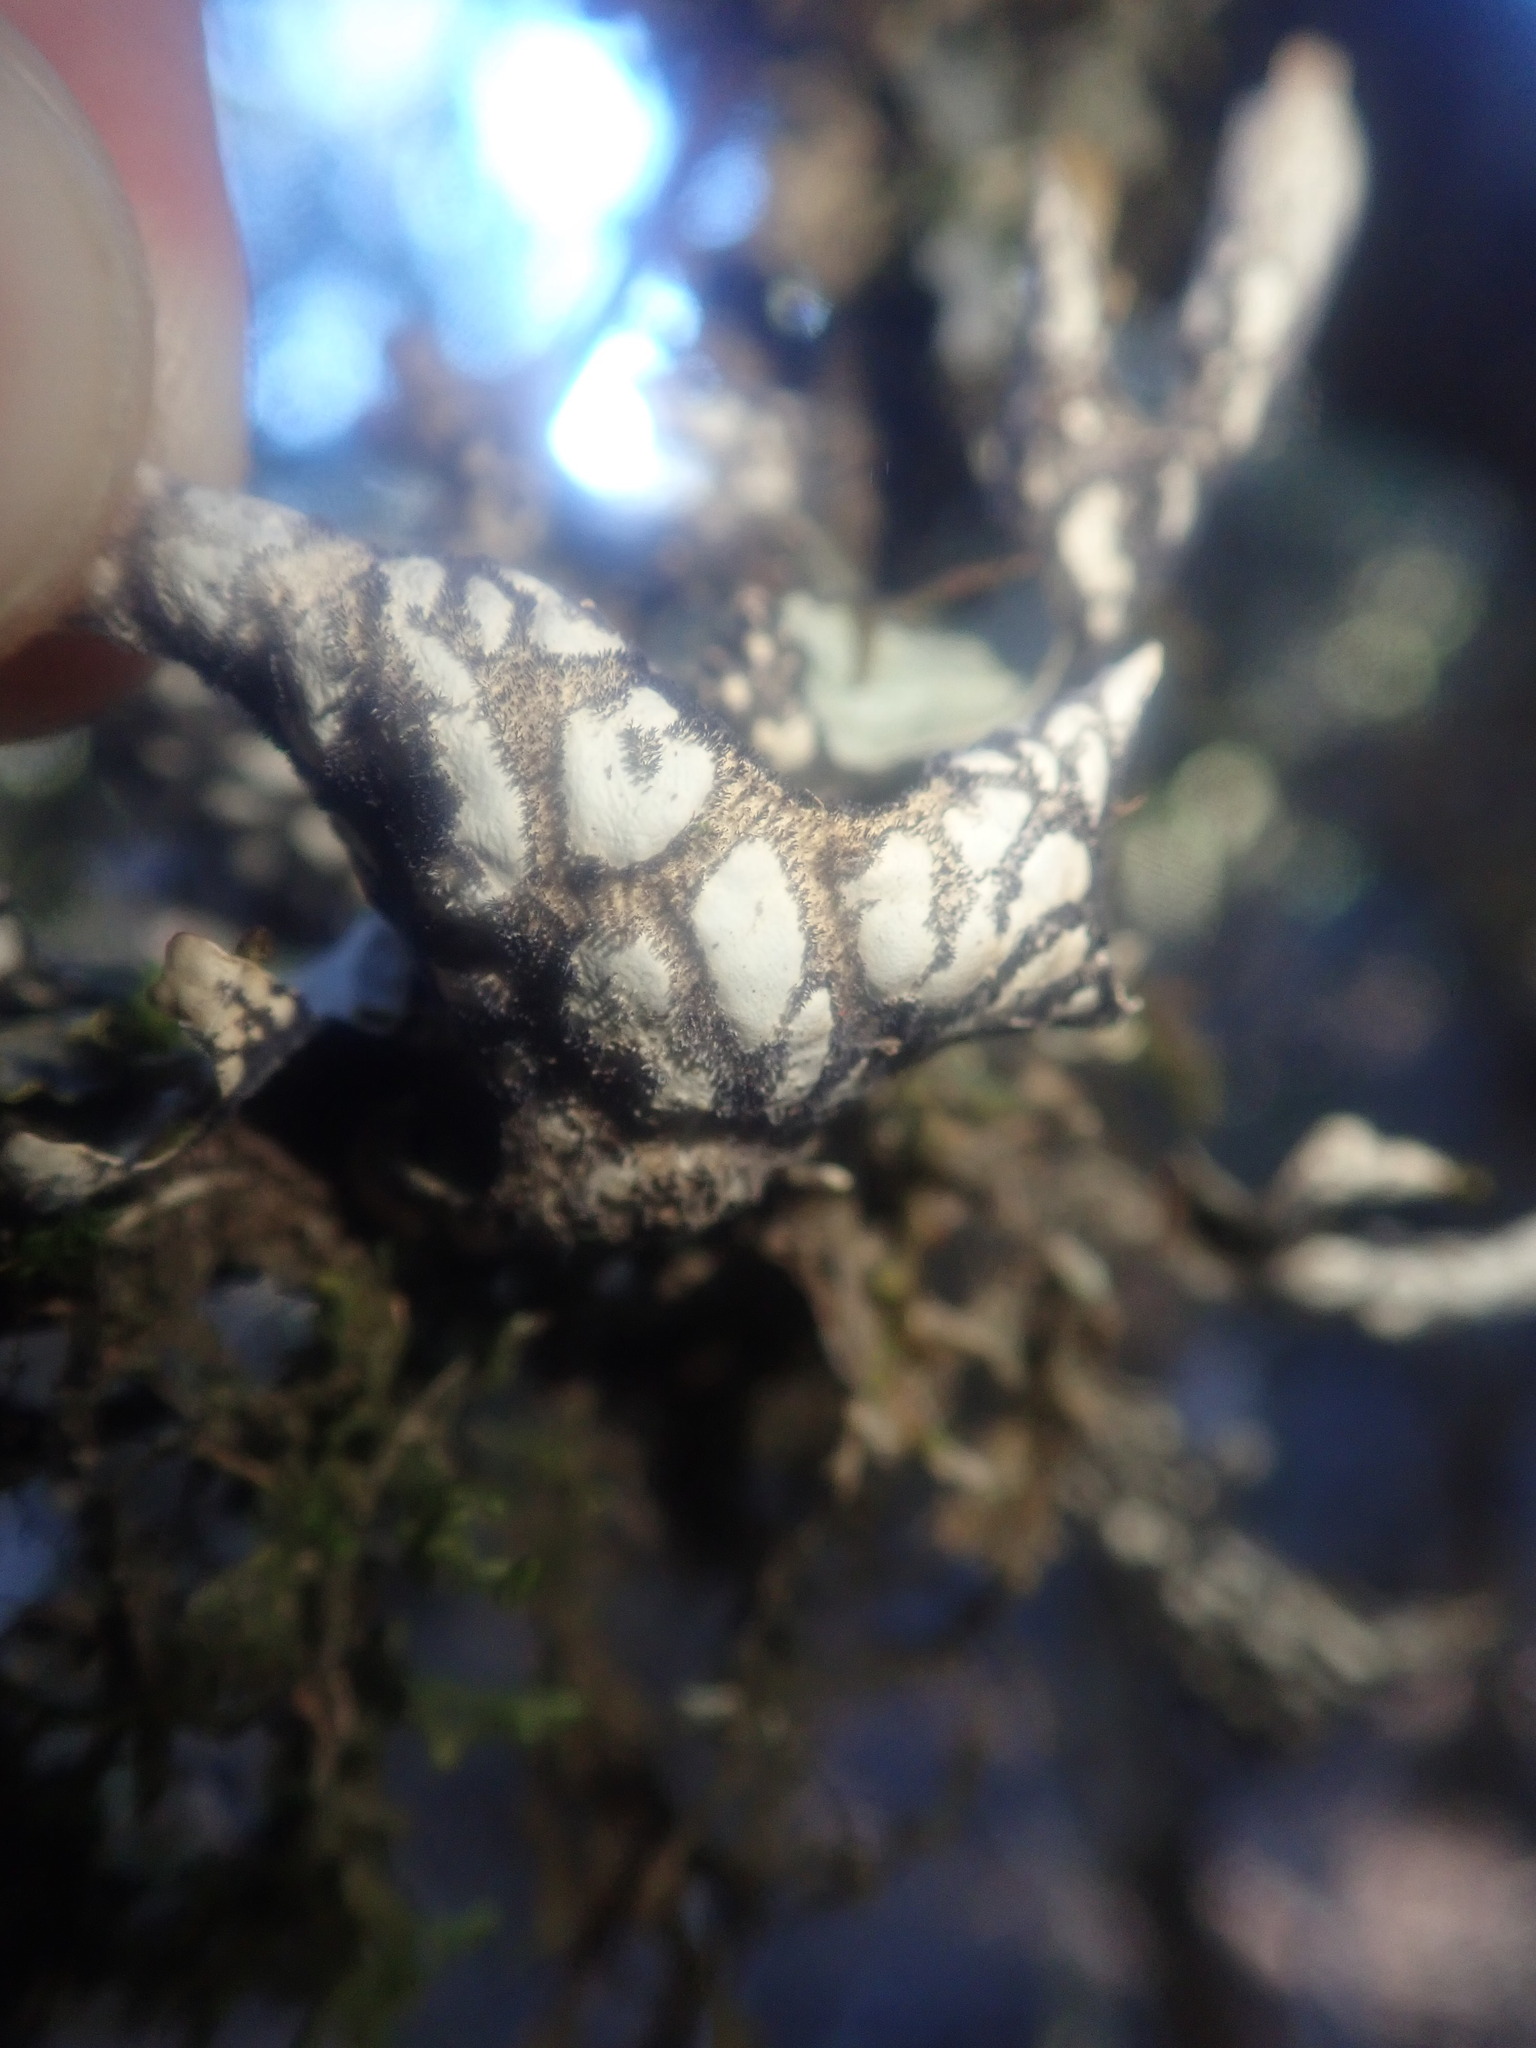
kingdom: Fungi
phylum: Ascomycota
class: Lecanoromycetes
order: Peltigerales
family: Lobariaceae
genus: Lobaria
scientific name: Lobaria pulmonaria
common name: Lungwort
